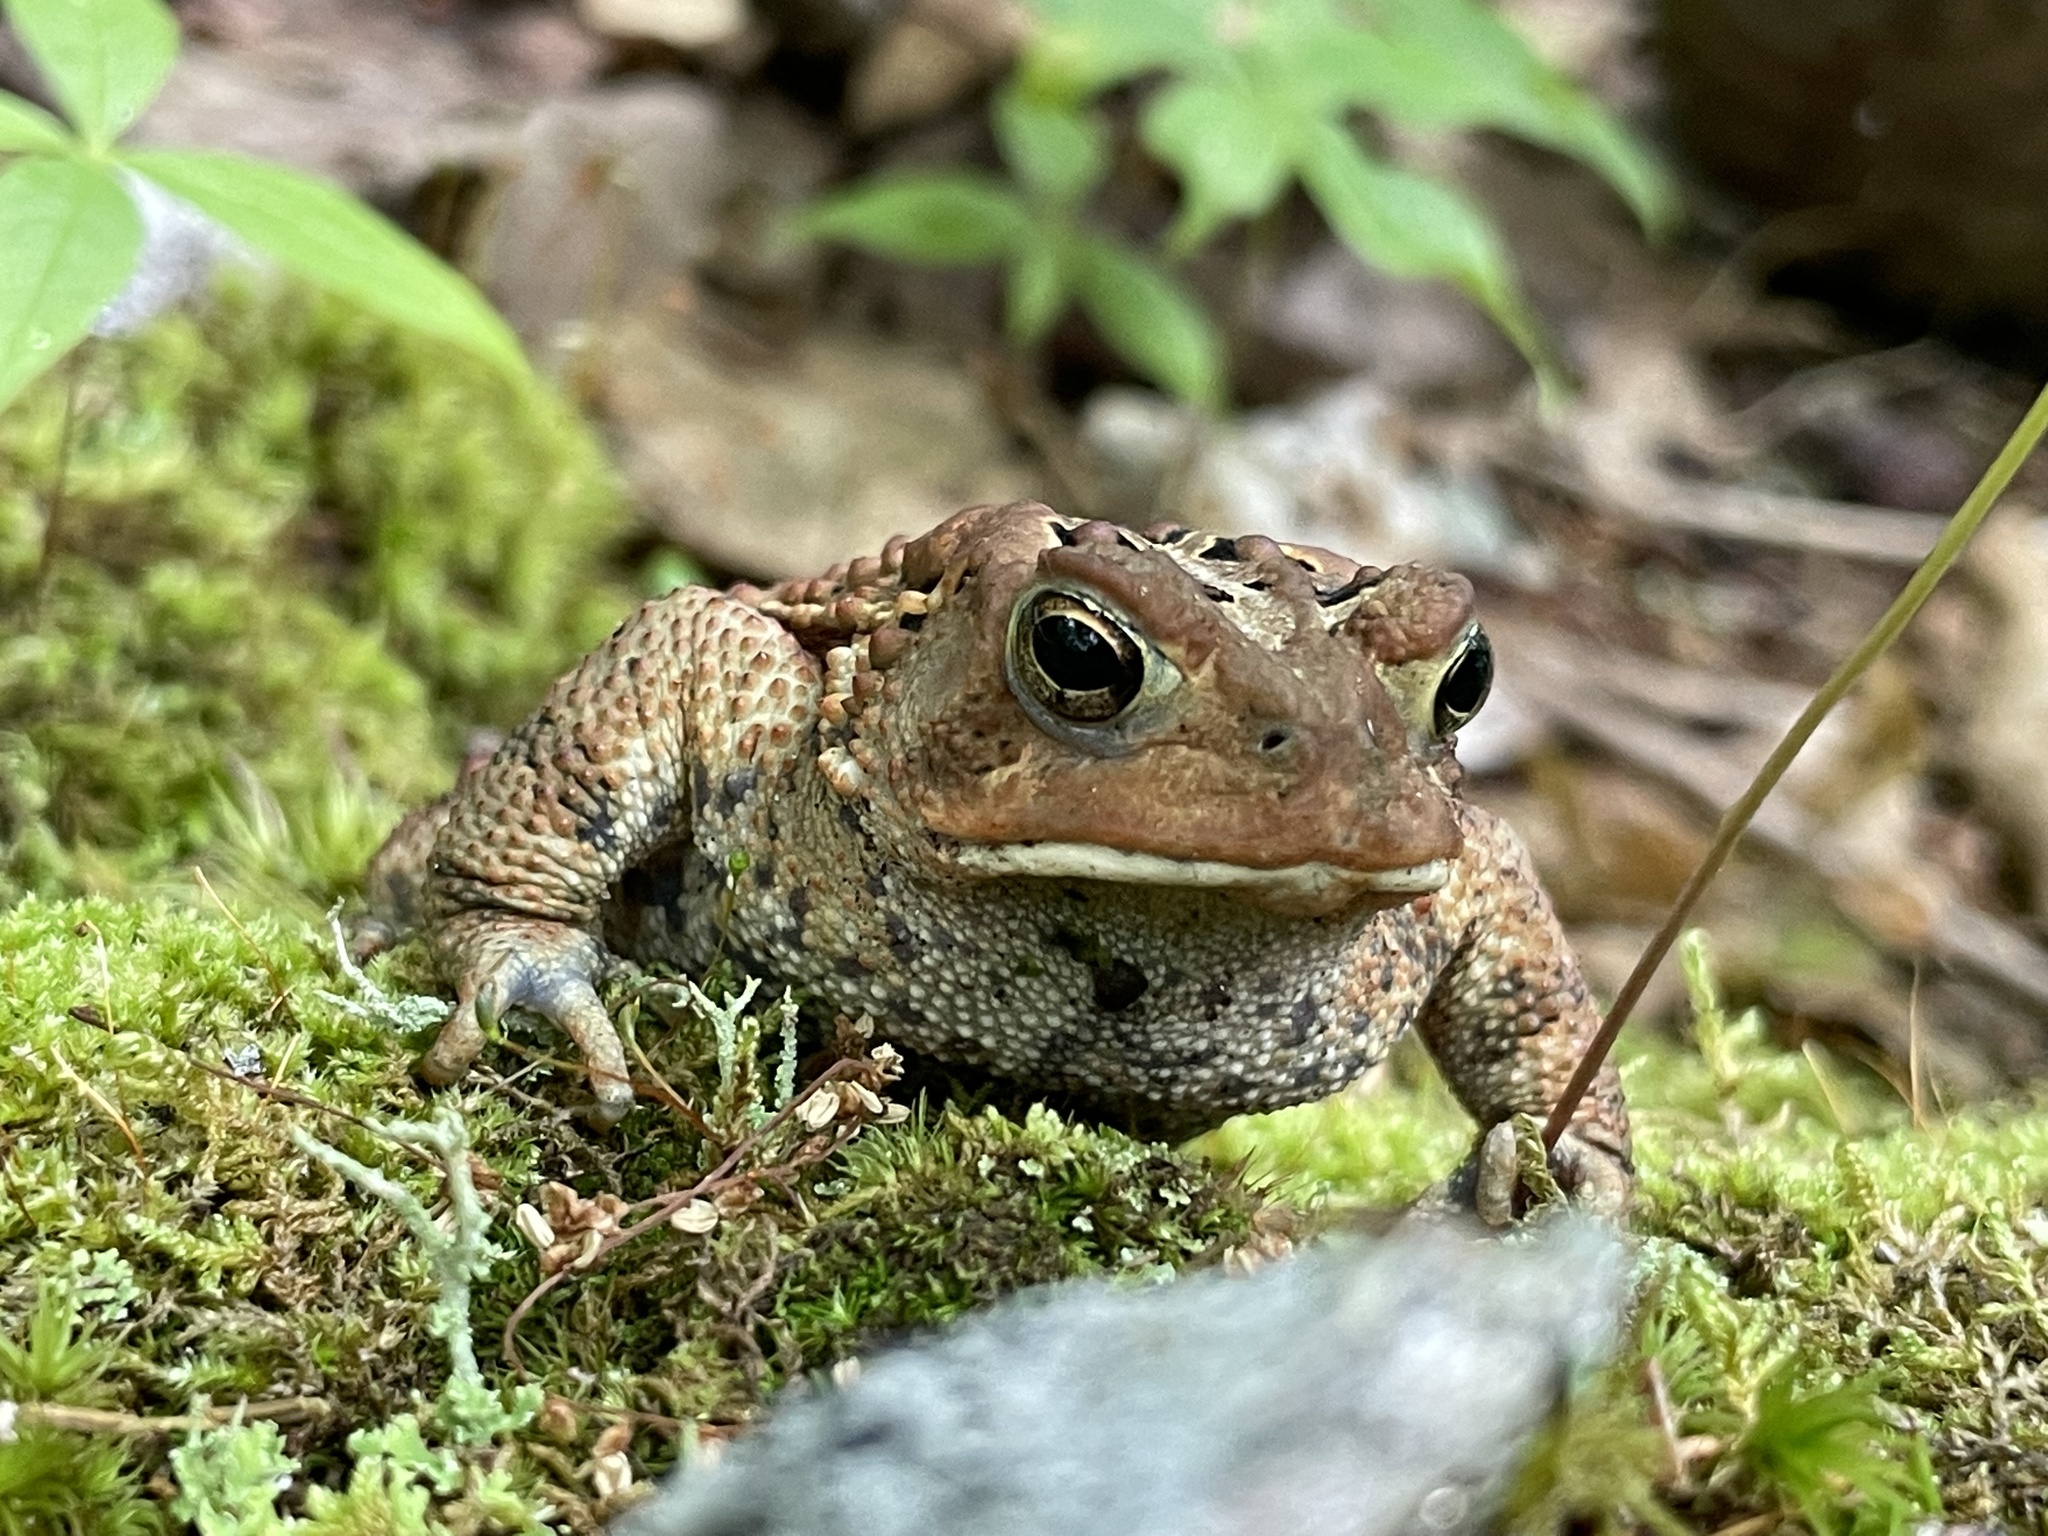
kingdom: Animalia
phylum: Chordata
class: Amphibia
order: Anura
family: Bufonidae
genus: Anaxyrus
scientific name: Anaxyrus americanus
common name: American toad
